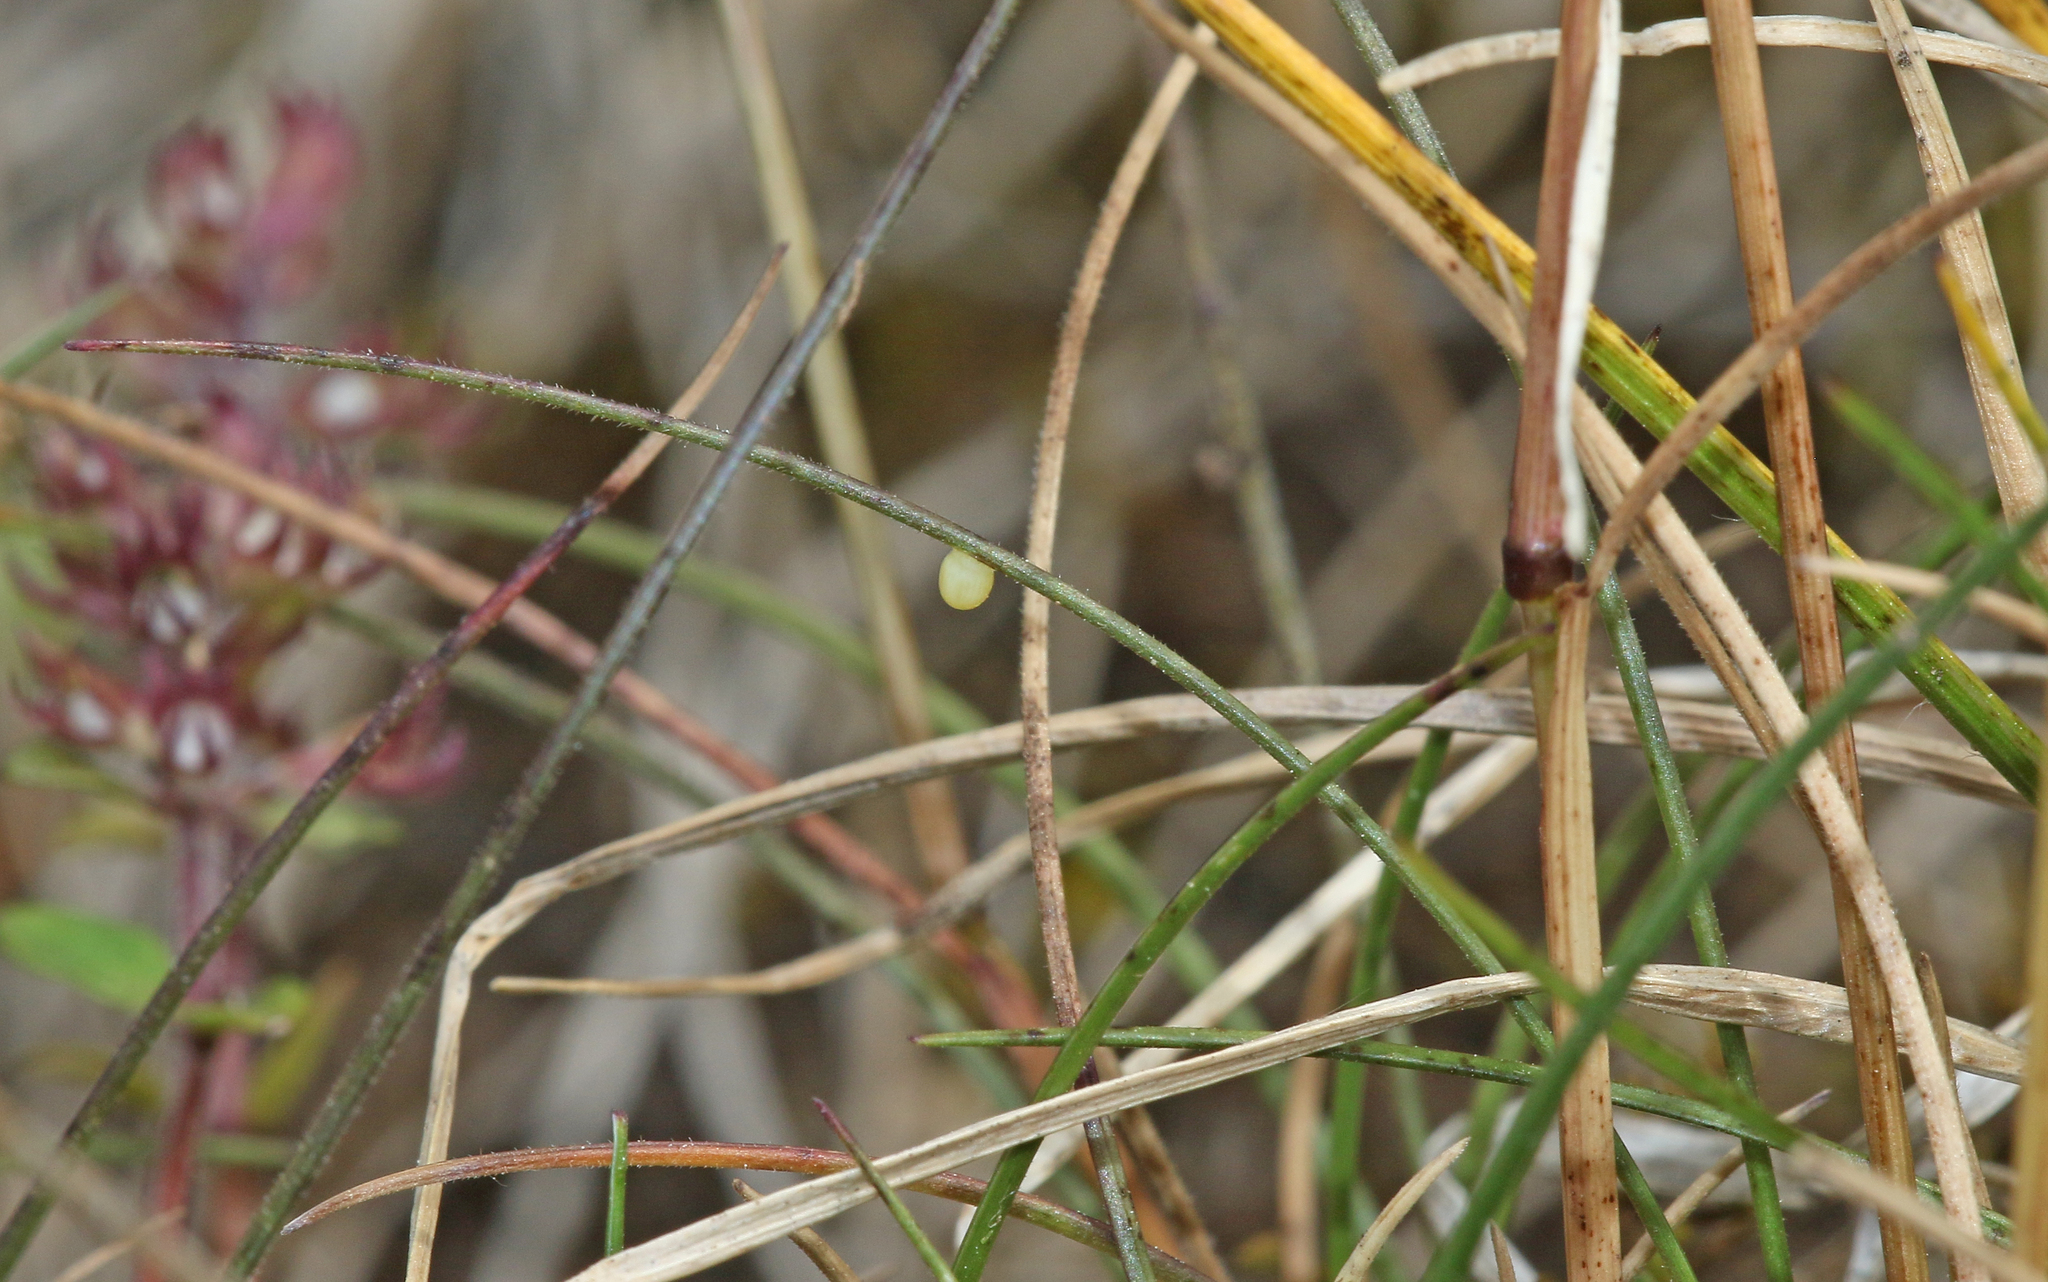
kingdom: Animalia
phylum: Arthropoda
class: Insecta
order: Lepidoptera
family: Nymphalidae
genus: Erebia
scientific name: Erebia meolans
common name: Piedmont ringlet
